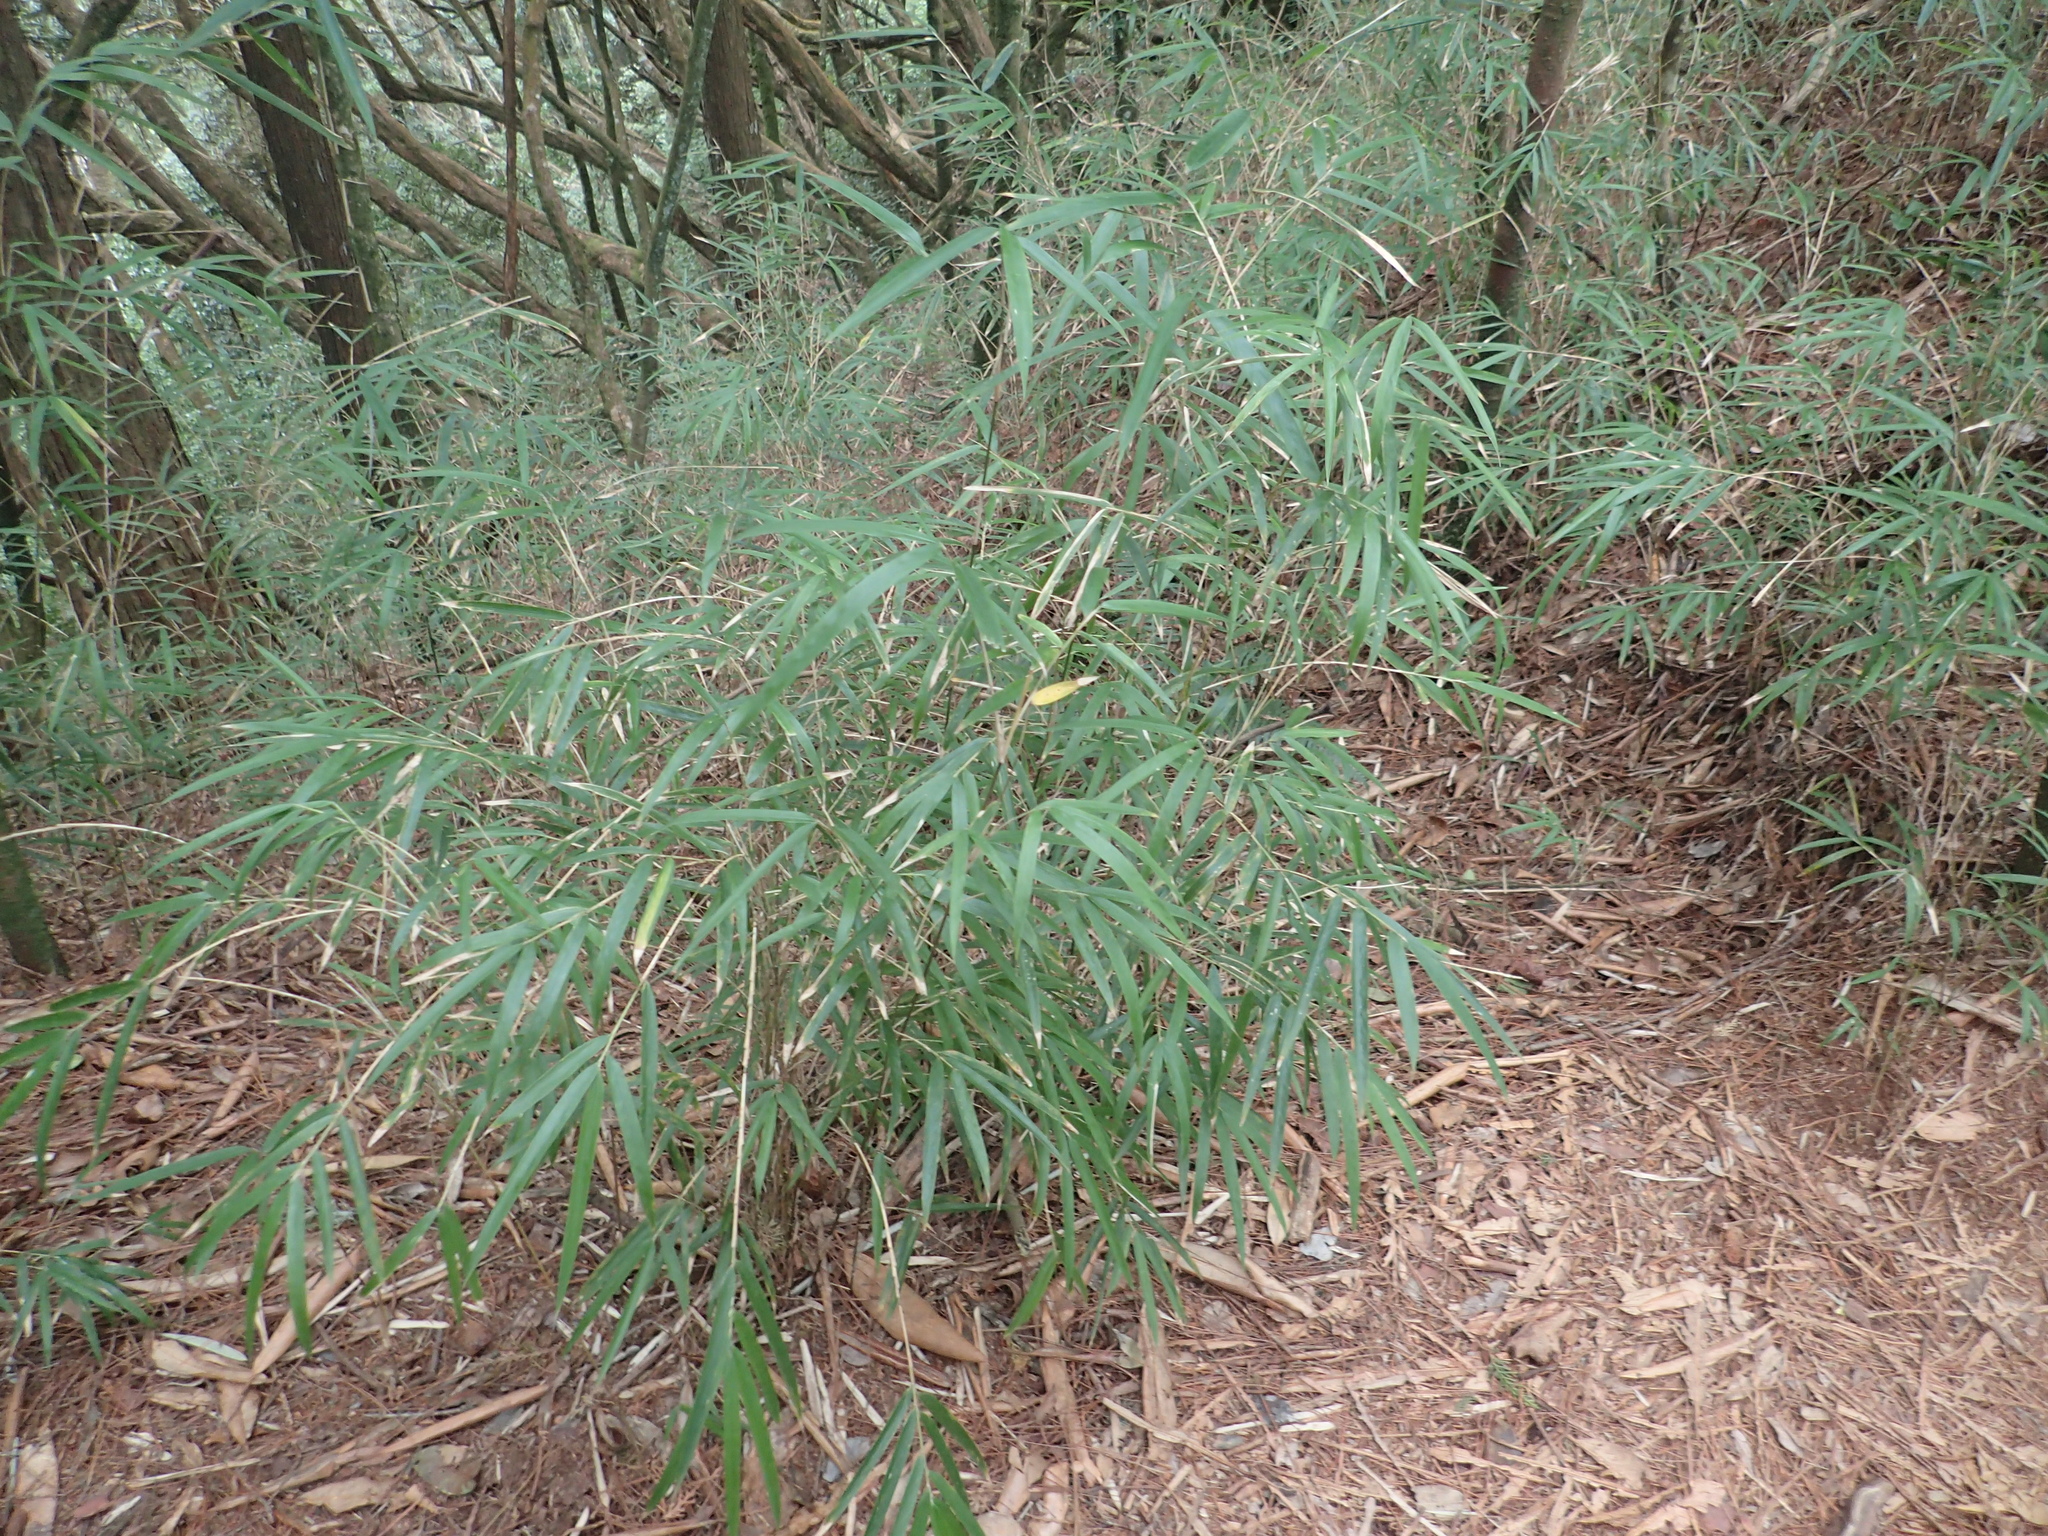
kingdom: Plantae
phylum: Tracheophyta
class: Liliopsida
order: Poales
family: Poaceae
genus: Yushania
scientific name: Yushania niitakayamensis
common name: Yushan cane
